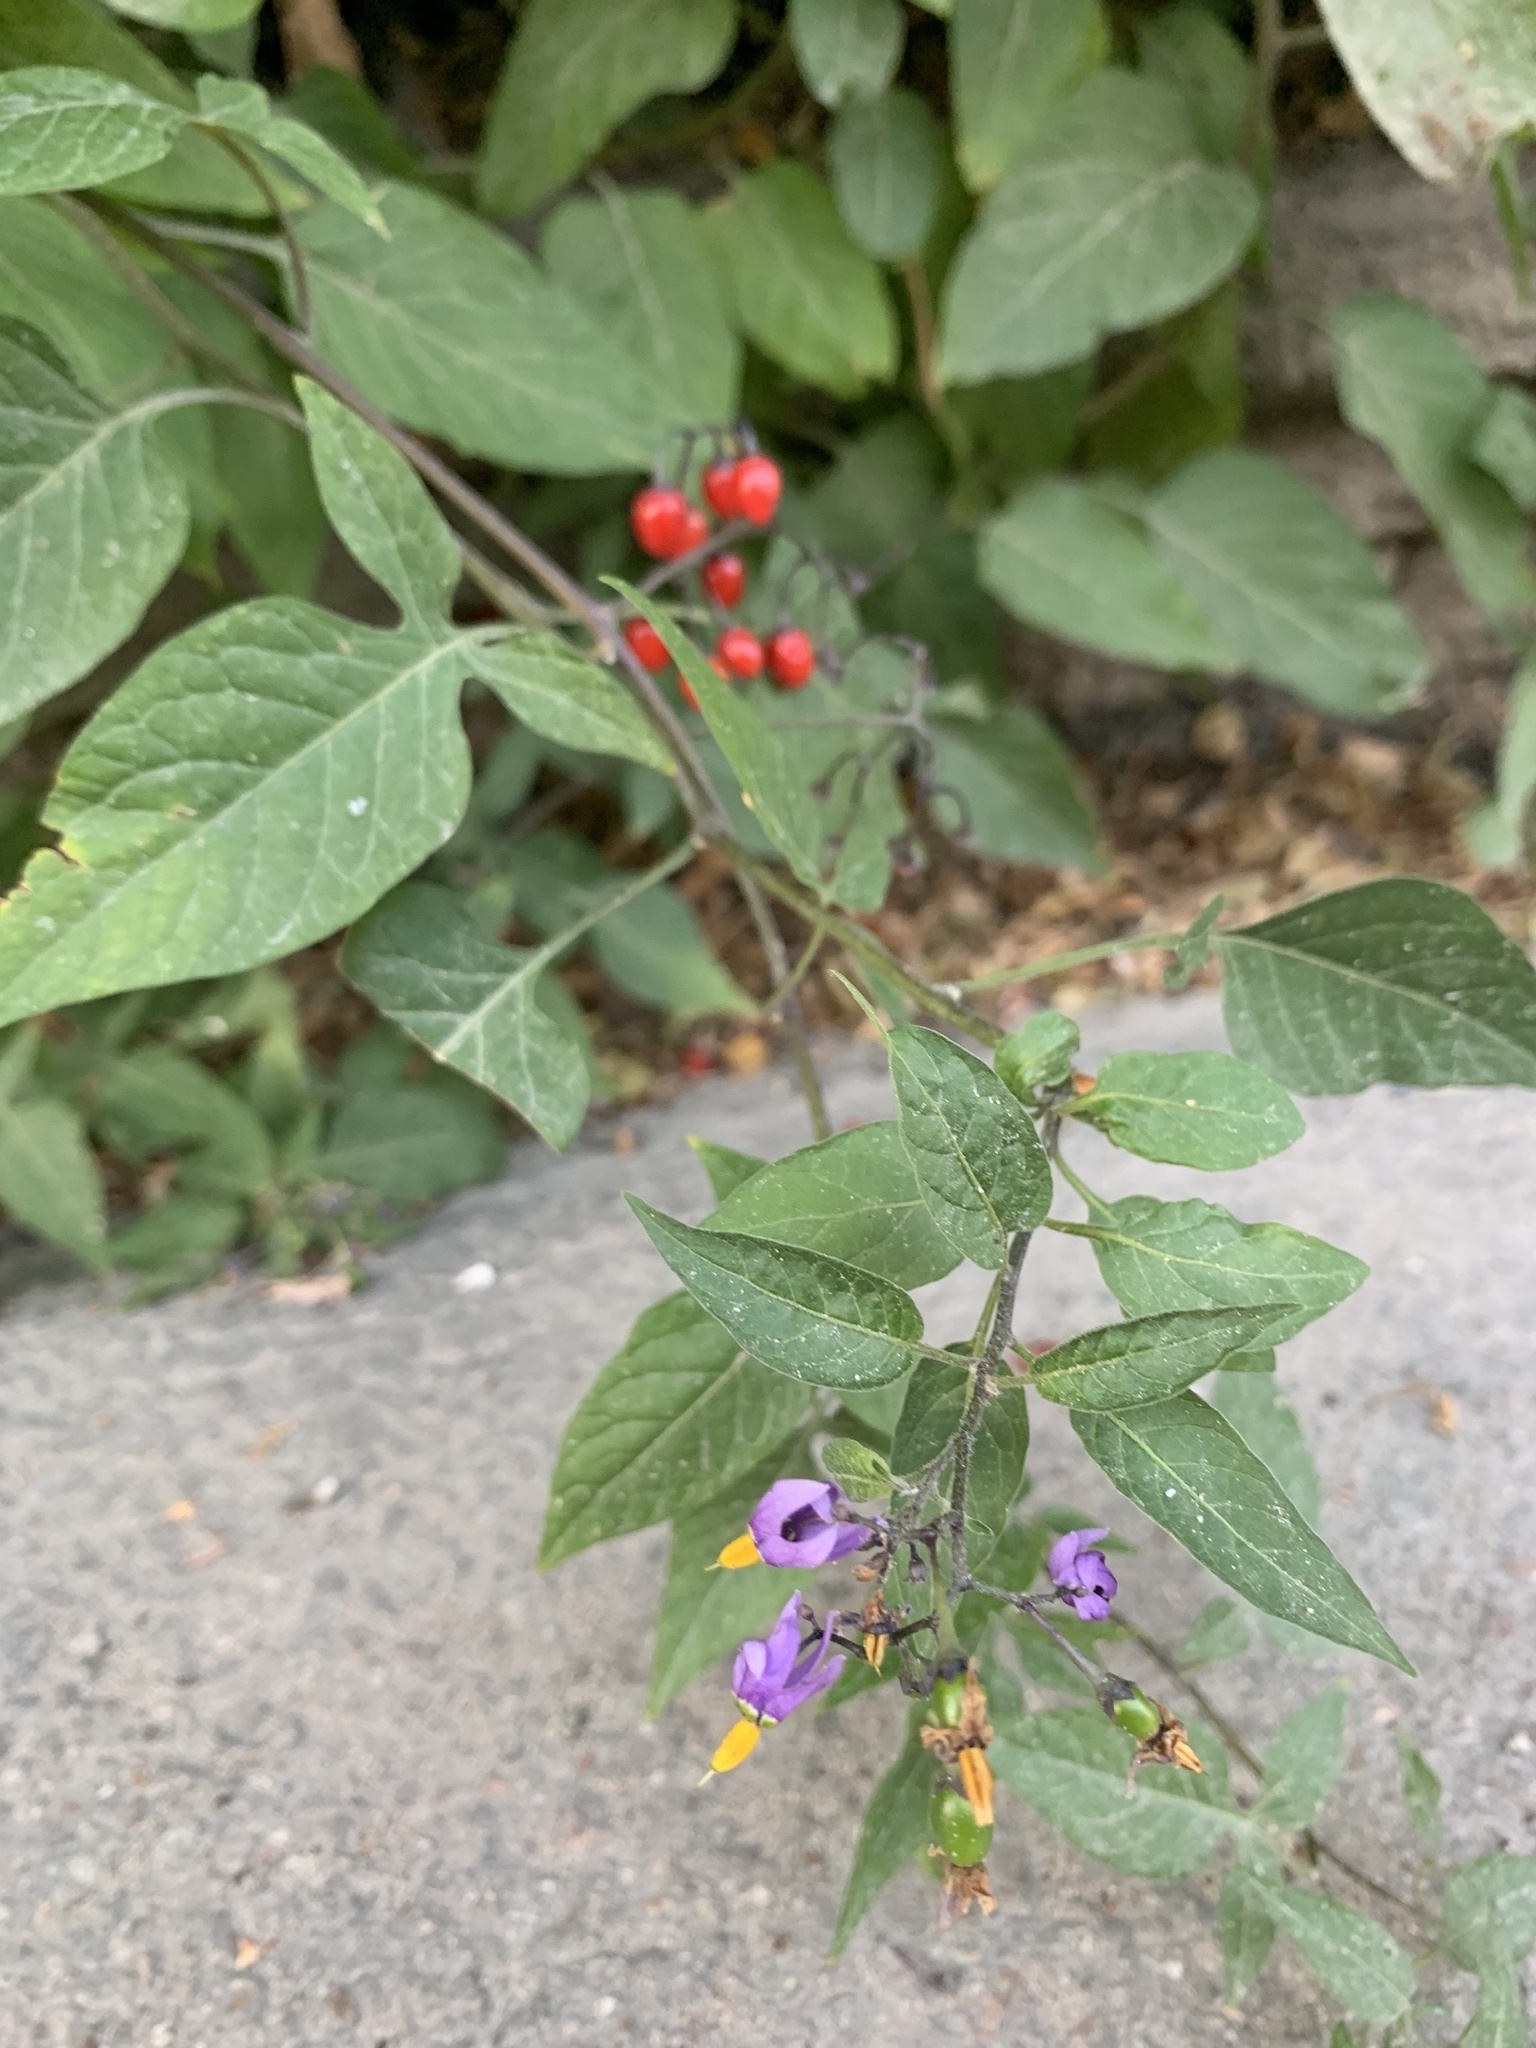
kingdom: Plantae
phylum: Tracheophyta
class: Magnoliopsida
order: Solanales
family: Solanaceae
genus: Solanum
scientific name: Solanum dulcamara
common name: Climbing nightshade
